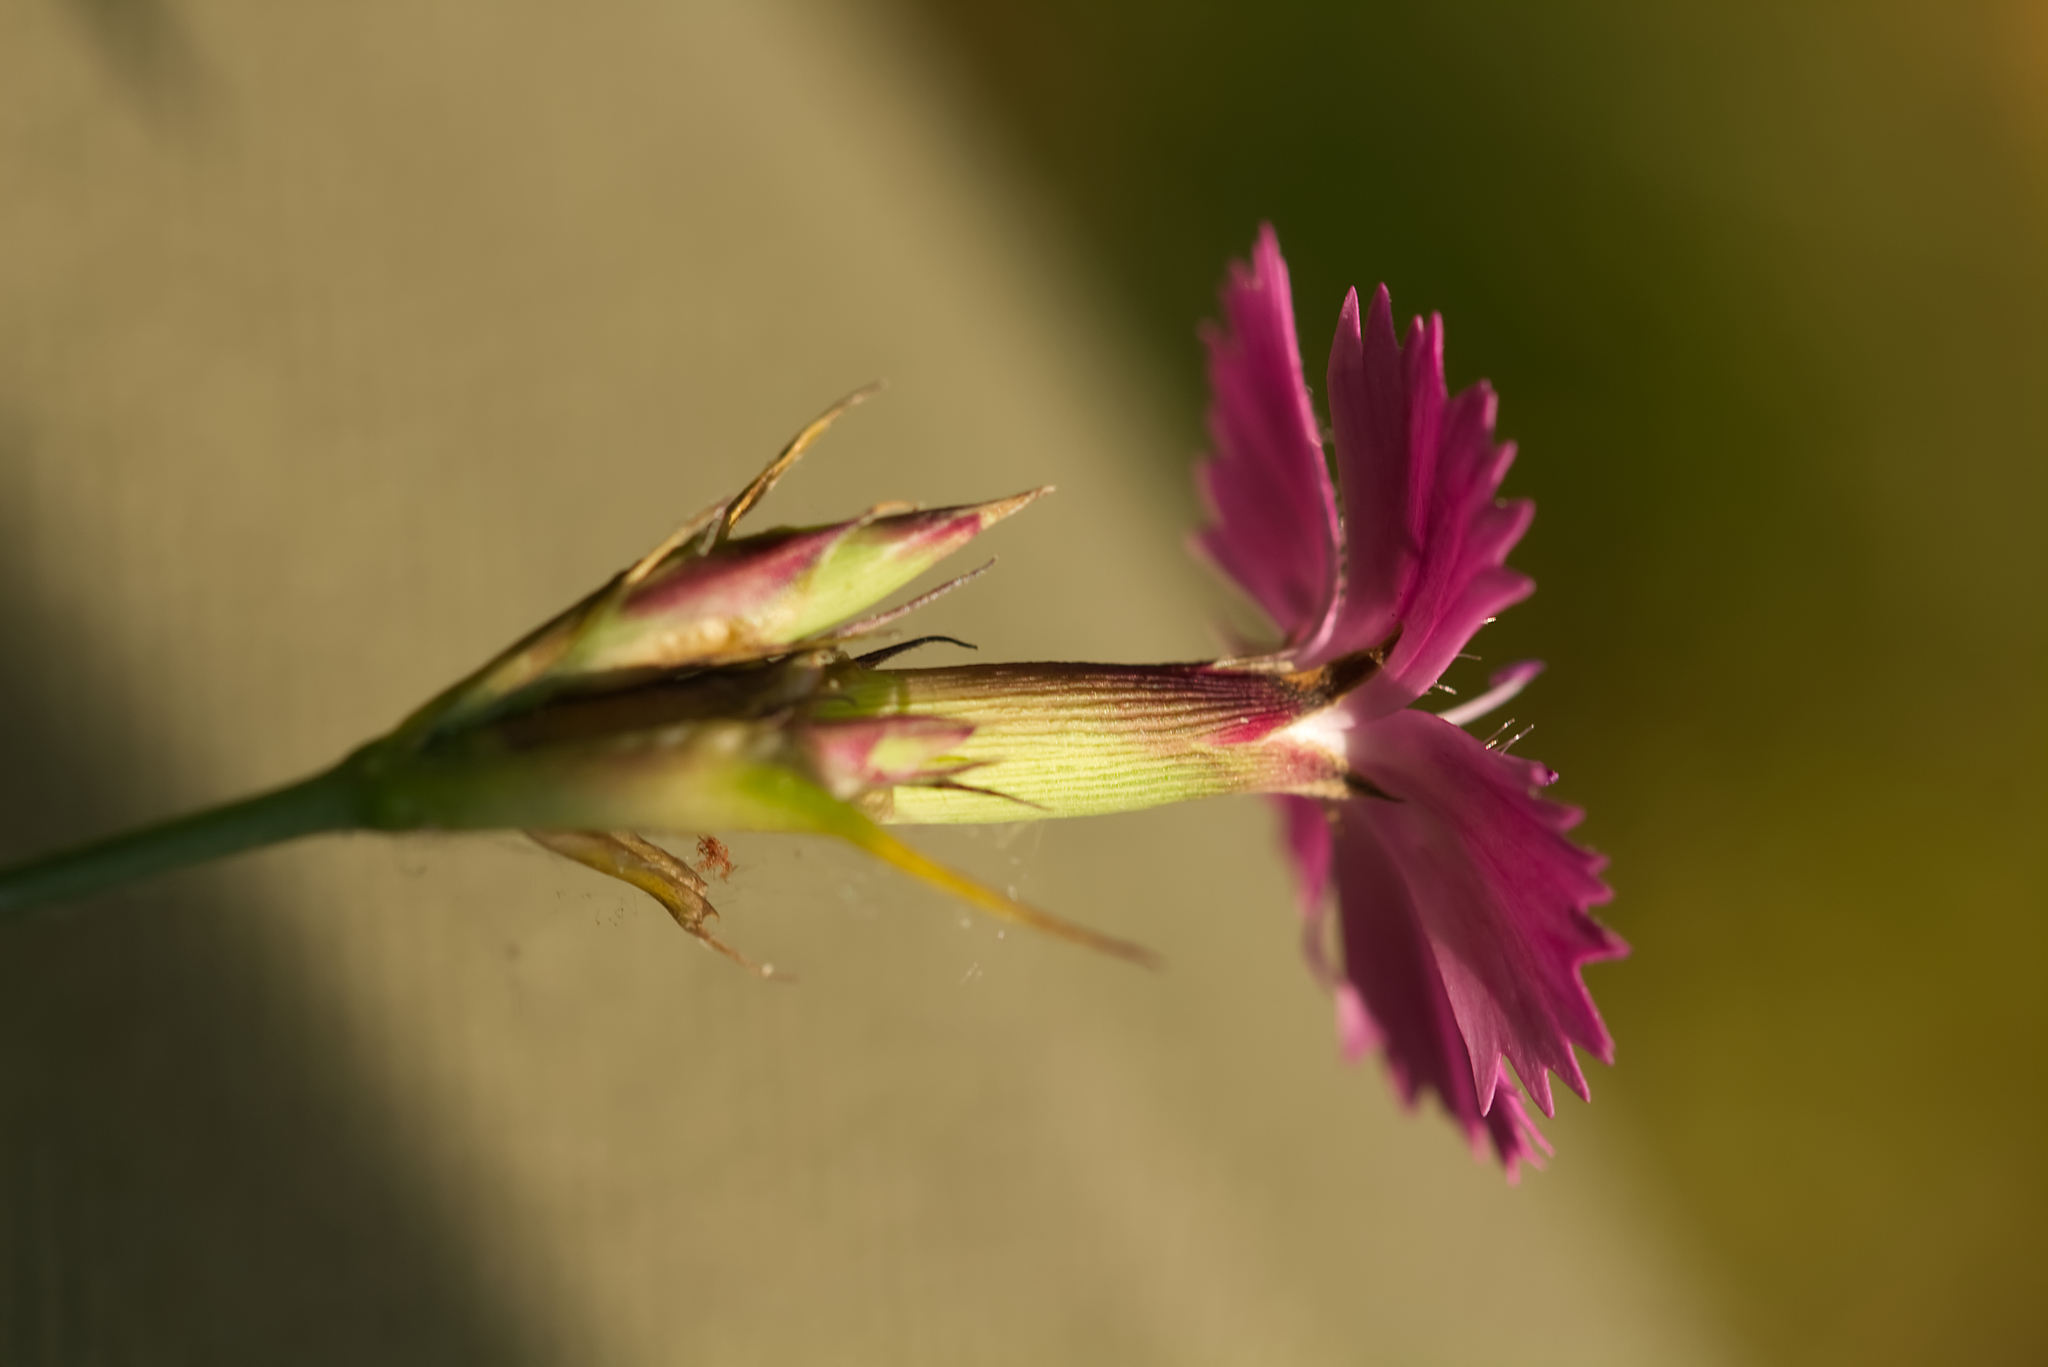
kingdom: Plantae
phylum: Tracheophyta
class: Magnoliopsida
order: Caryophyllales
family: Caryophyllaceae
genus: Dianthus
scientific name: Dianthus carthusianorum
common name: Carthusian pink
